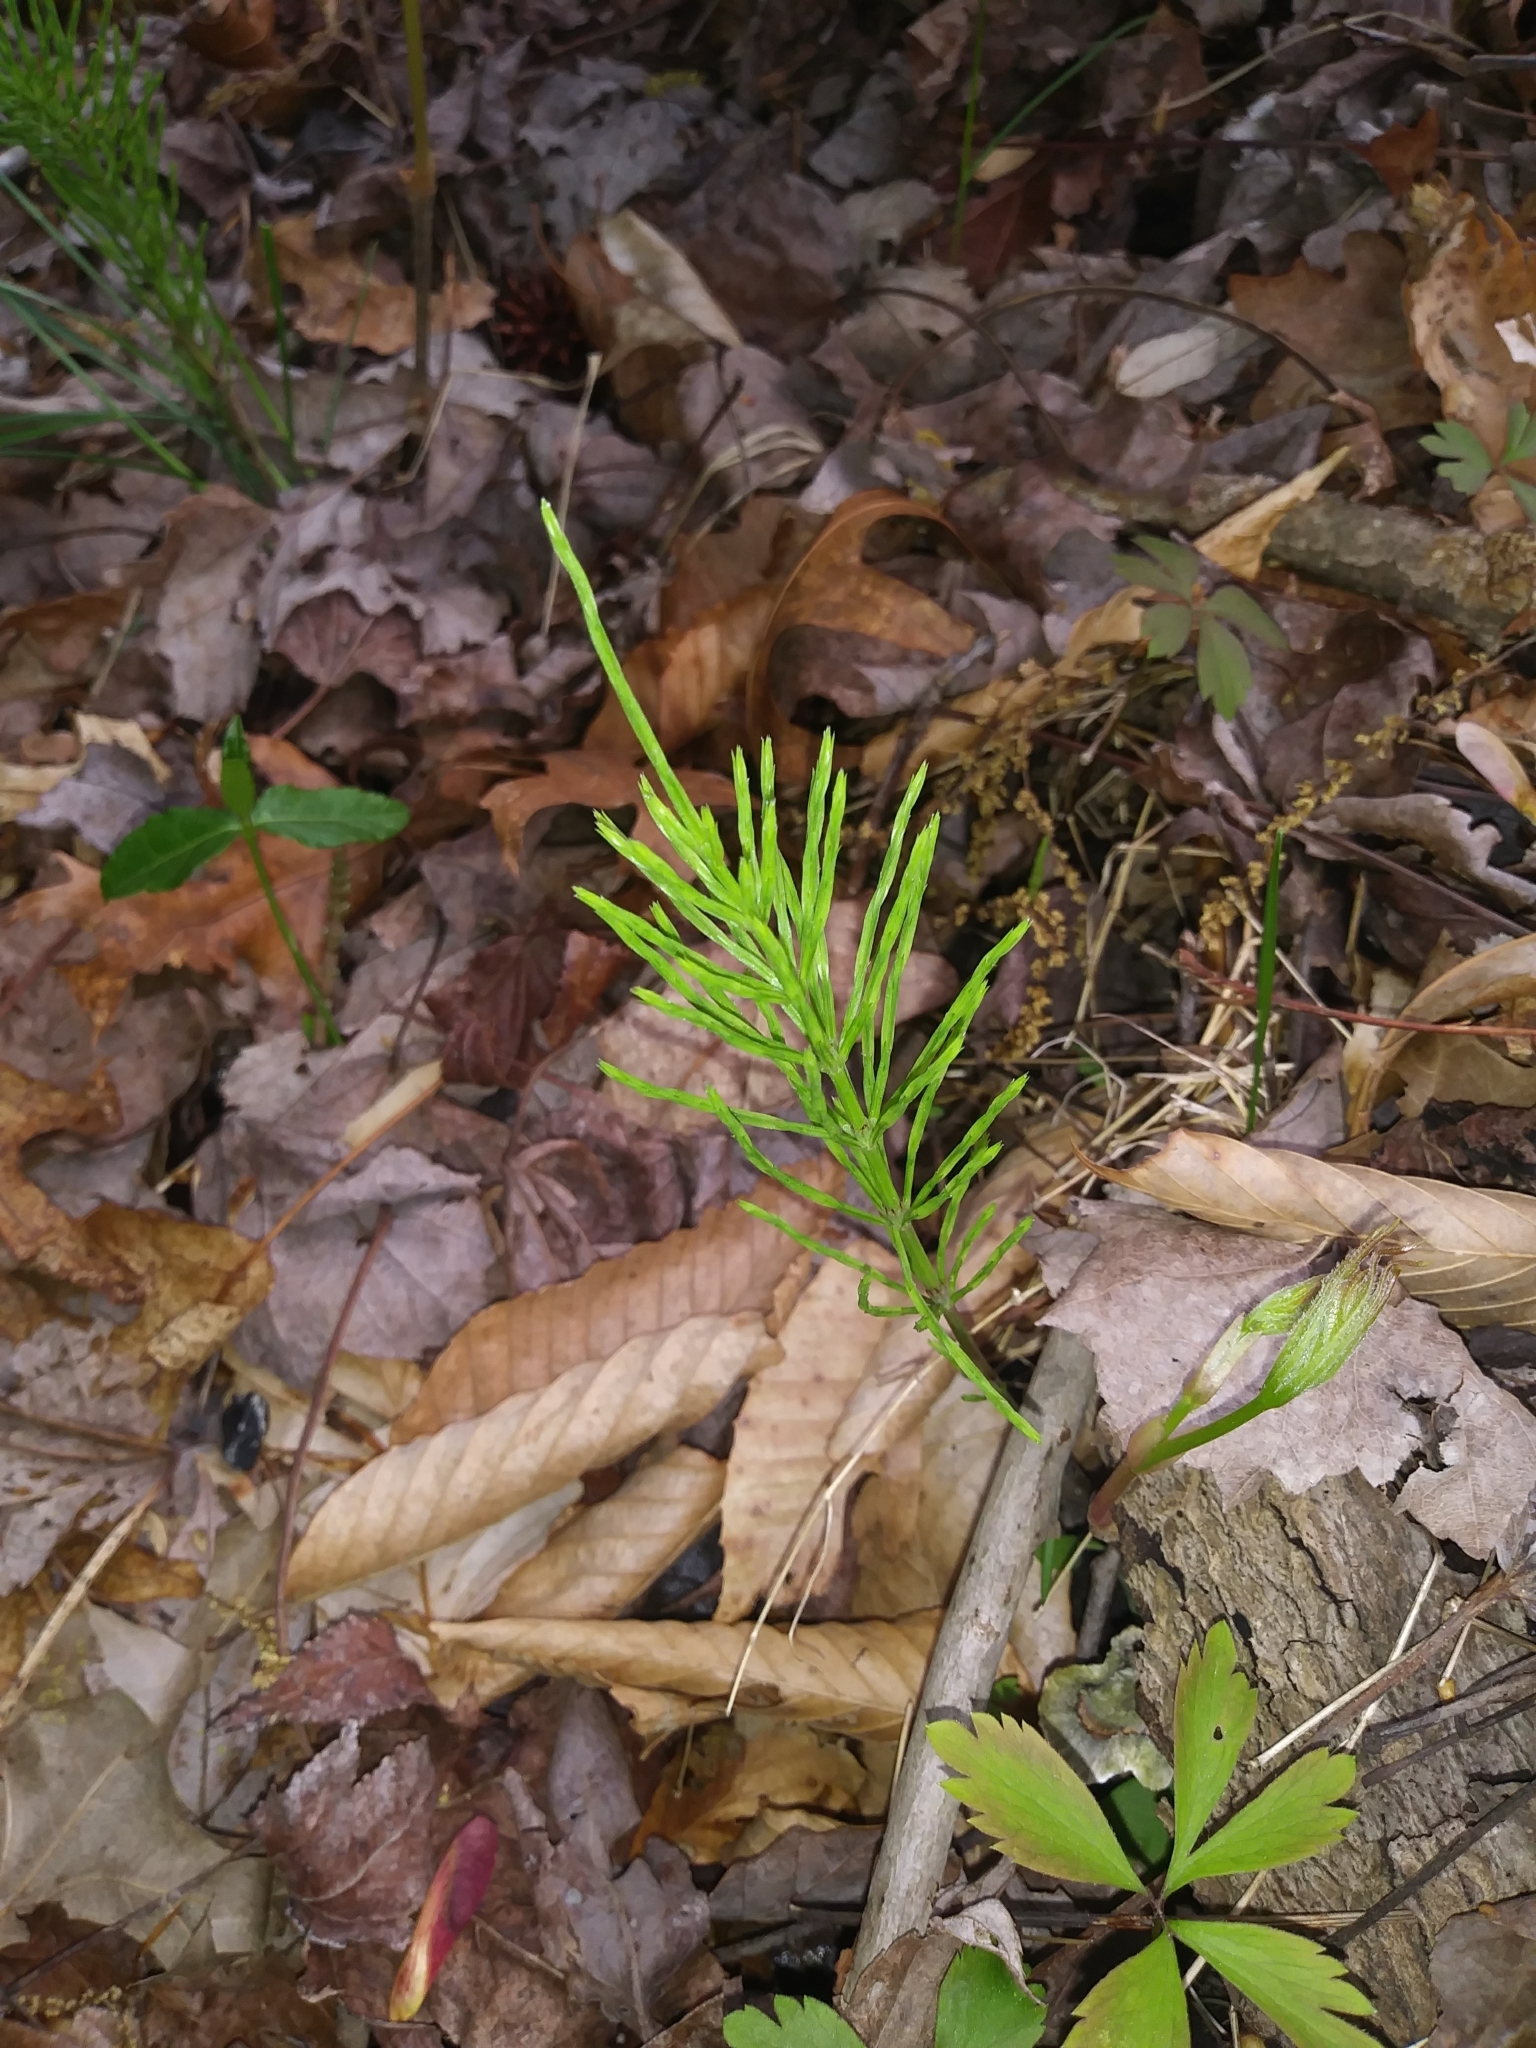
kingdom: Plantae
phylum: Tracheophyta
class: Polypodiopsida
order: Equisetales
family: Equisetaceae
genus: Equisetum
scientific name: Equisetum arvense
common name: Field horsetail
